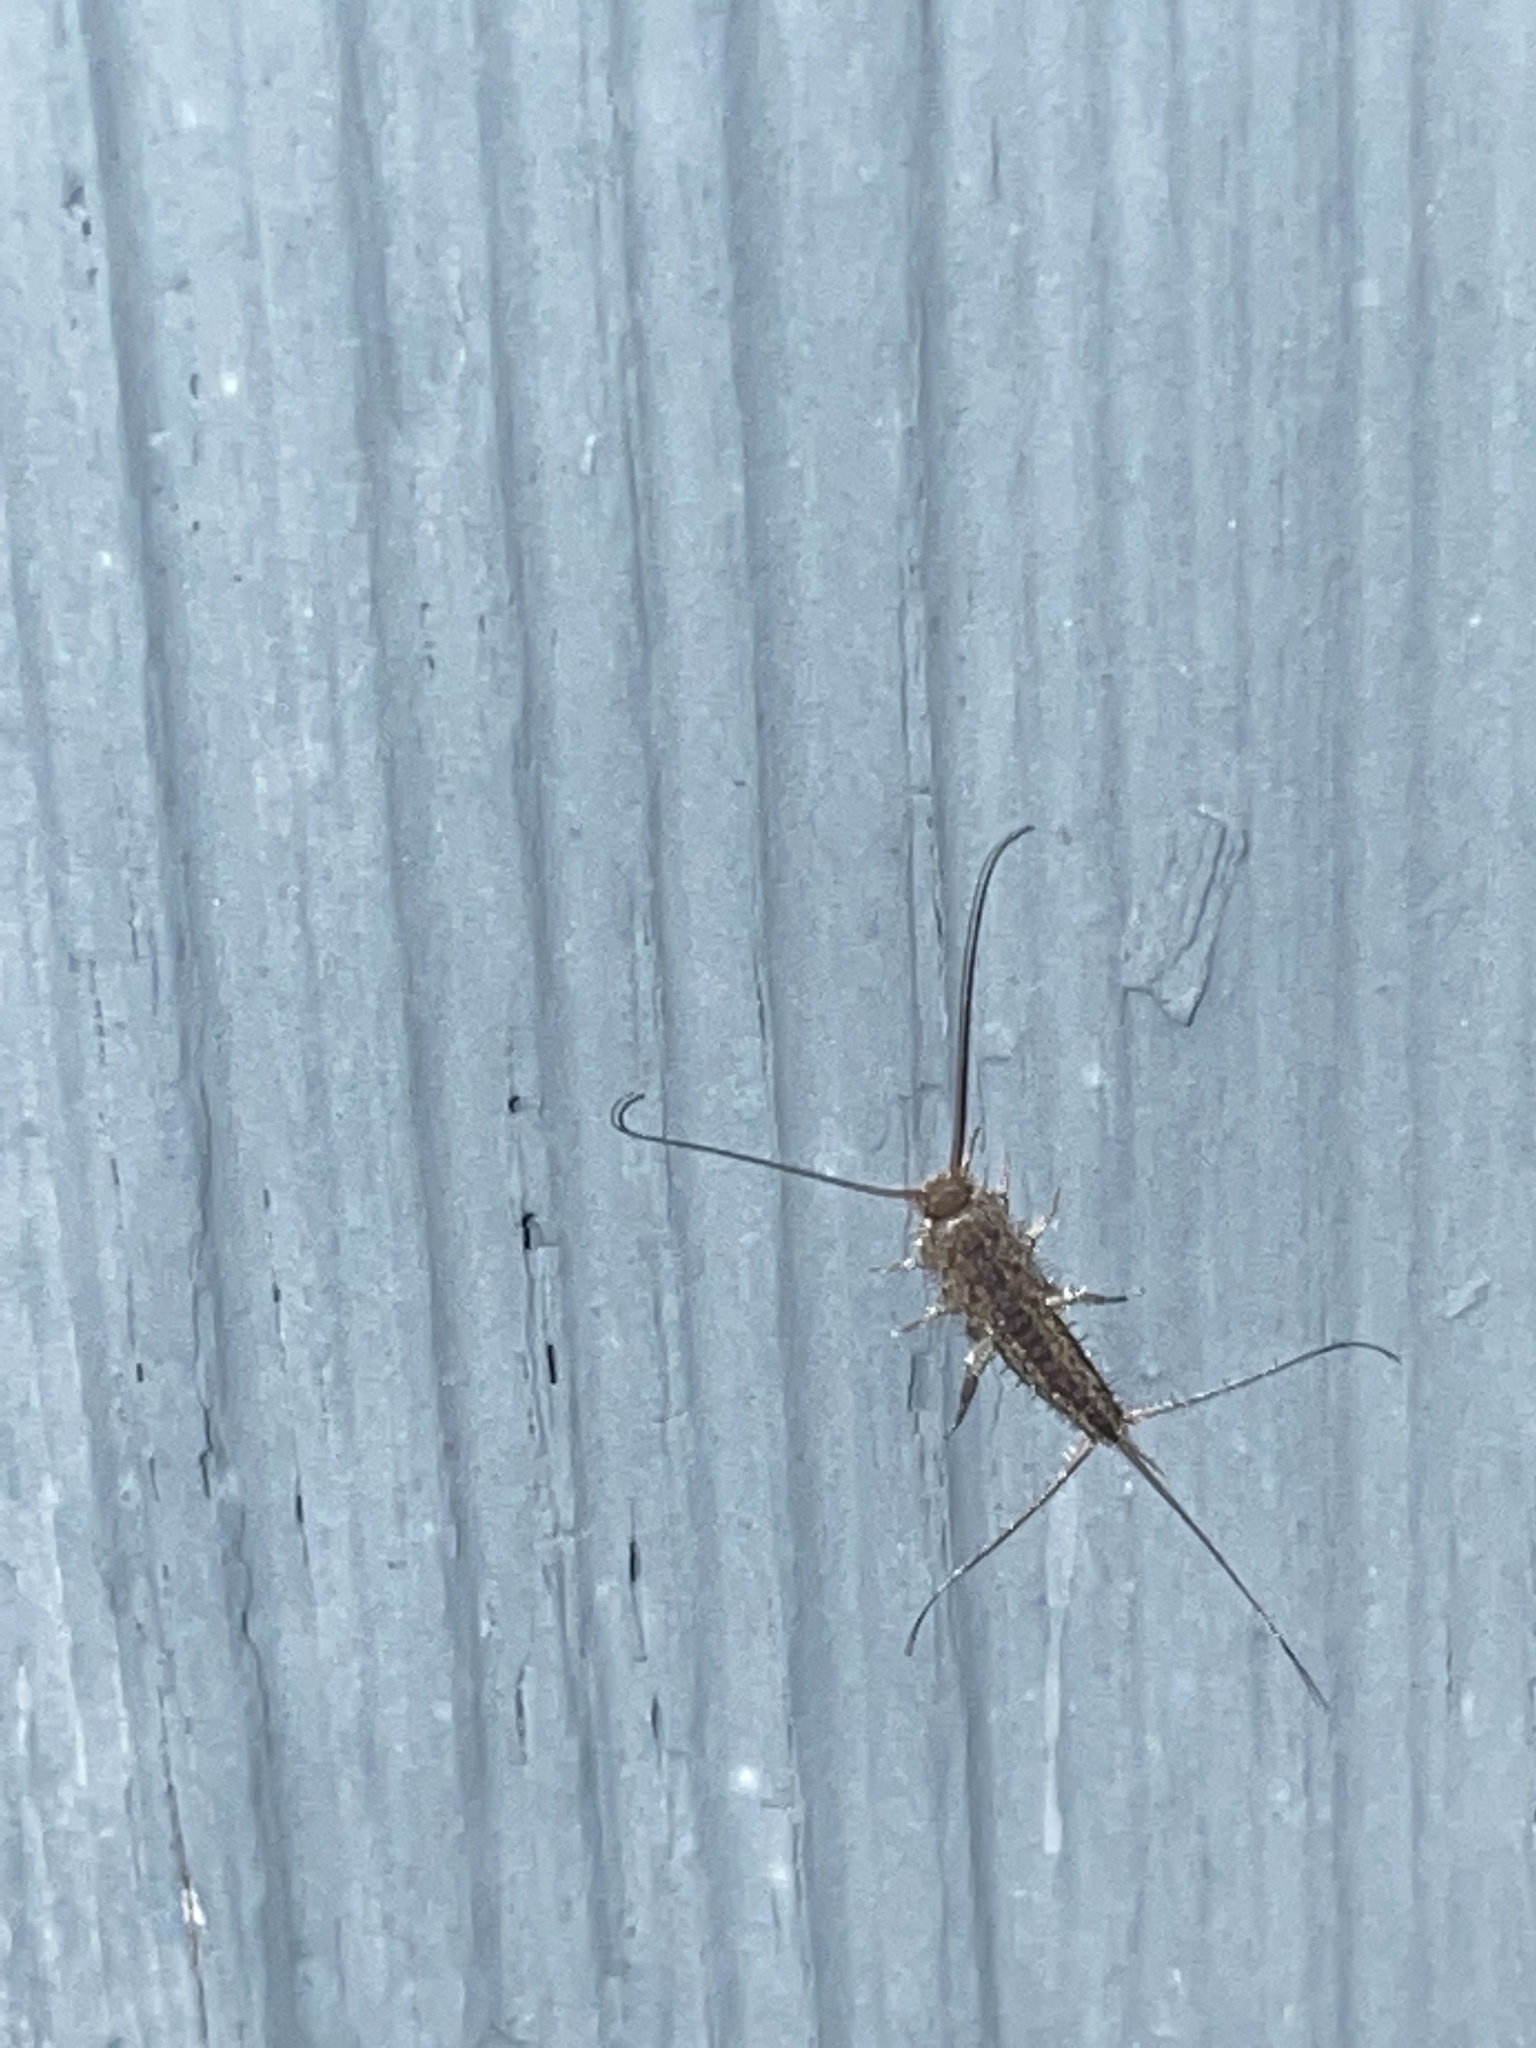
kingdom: Animalia
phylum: Arthropoda
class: Insecta
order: Zygentoma
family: Lepismatidae
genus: Ctenolepisma
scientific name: Ctenolepisma lineata
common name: Four-lined silverfish
